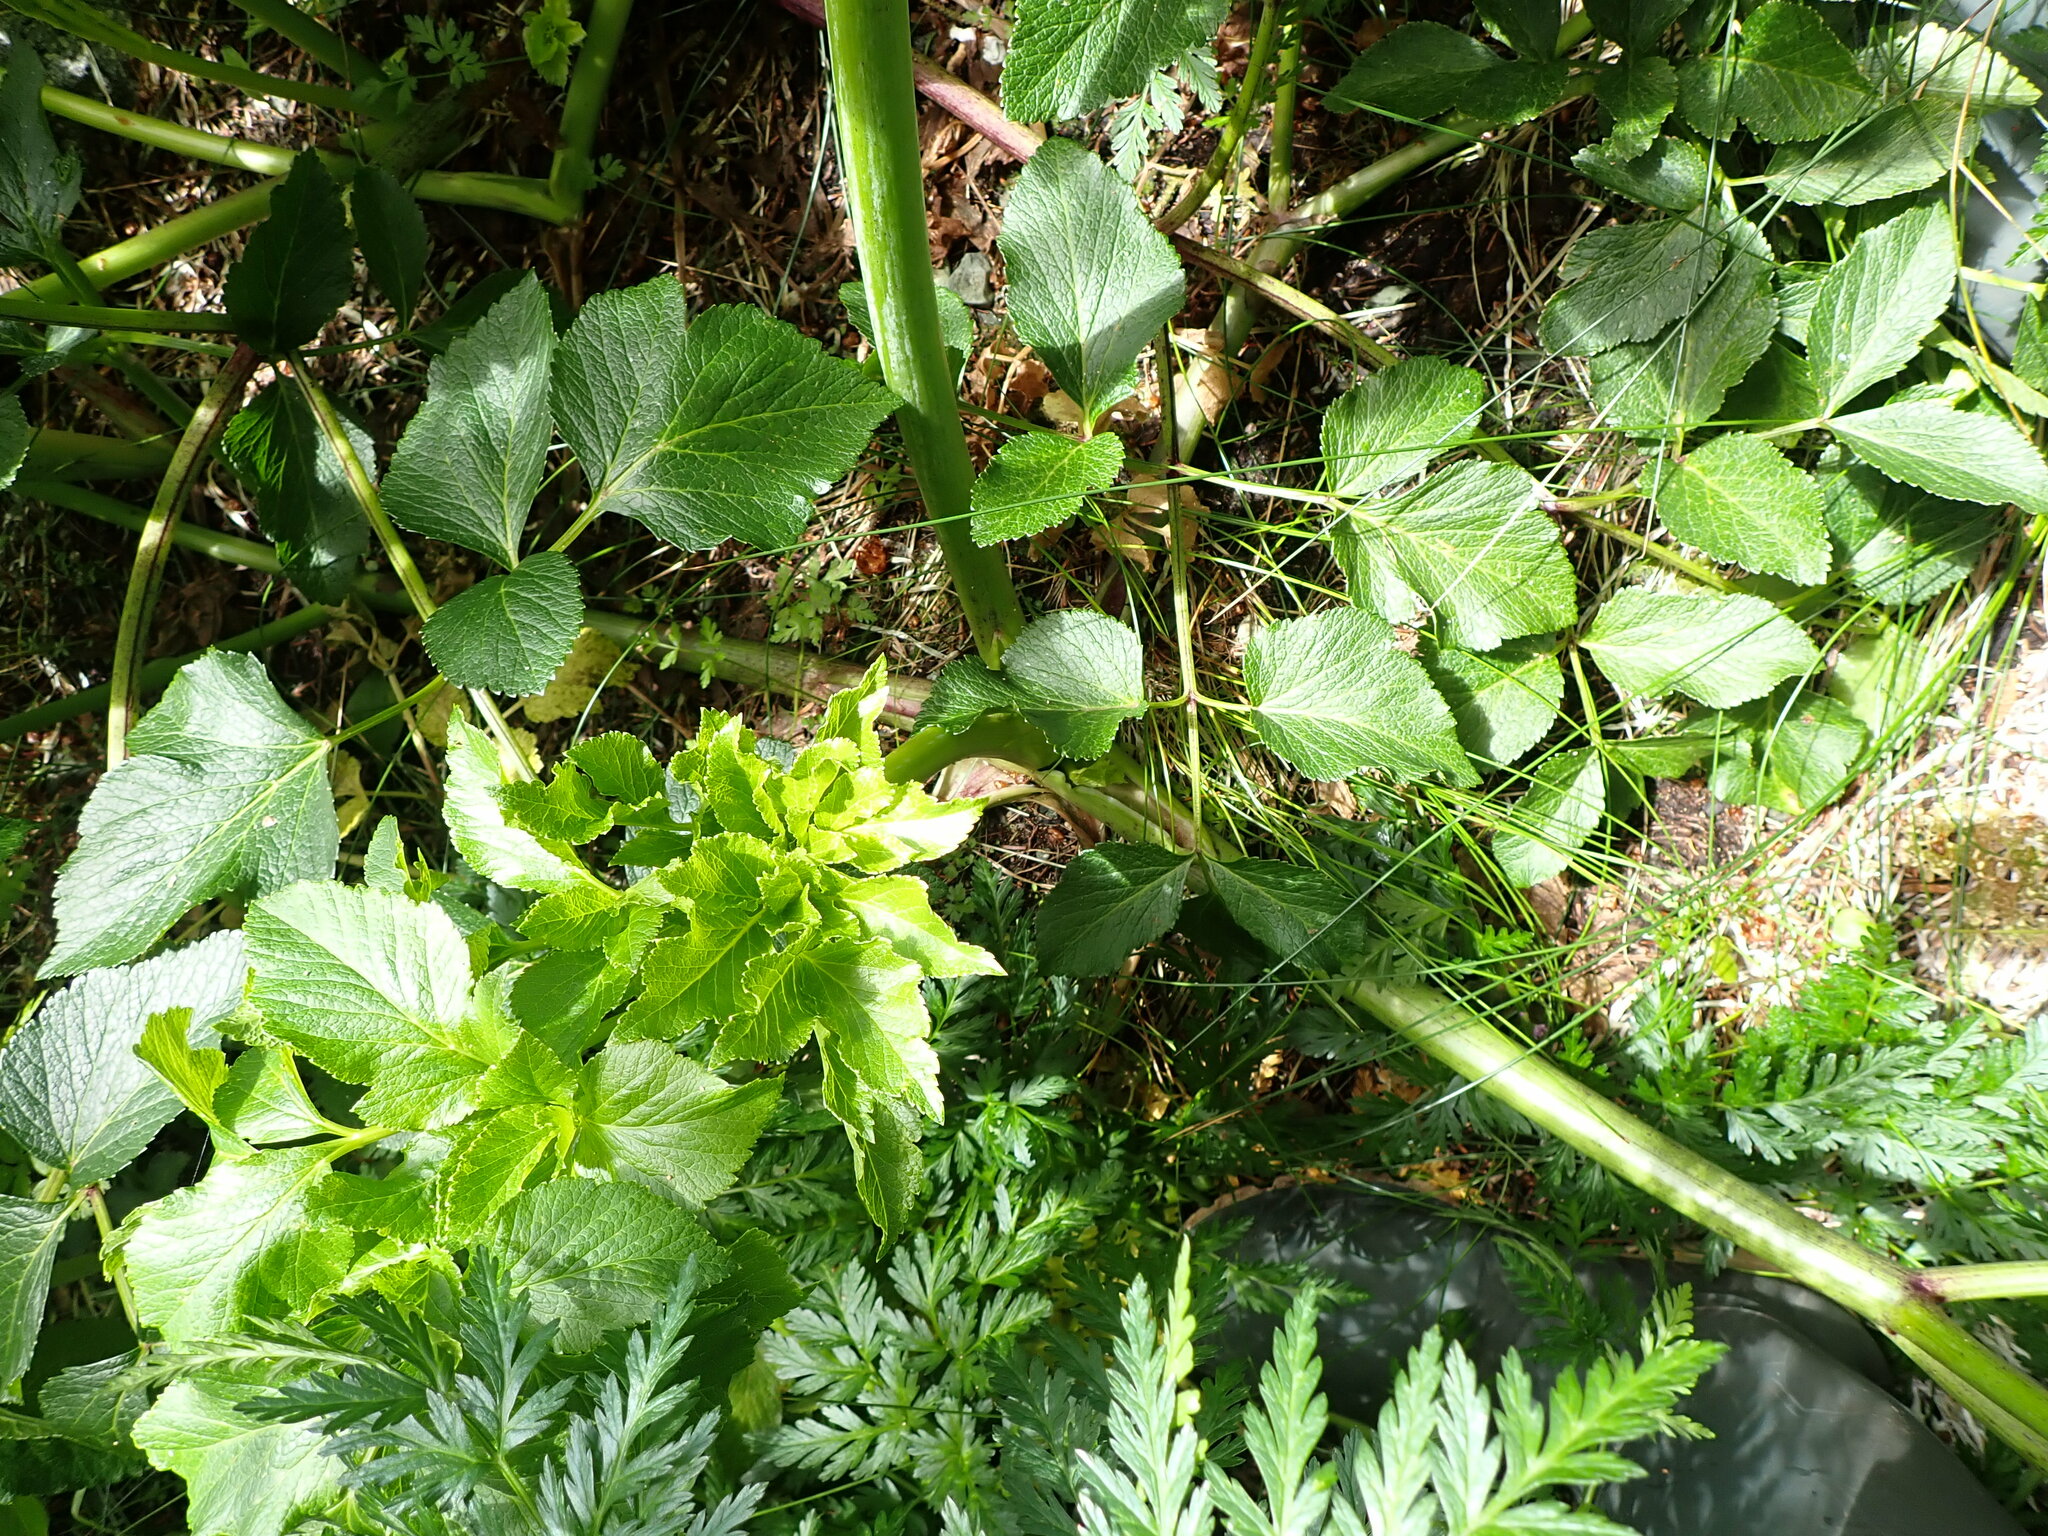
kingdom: Plantae
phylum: Tracheophyta
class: Magnoliopsida
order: Apiales
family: Apiaceae
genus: Angelica
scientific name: Angelica lucida
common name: Seabeach angelica
